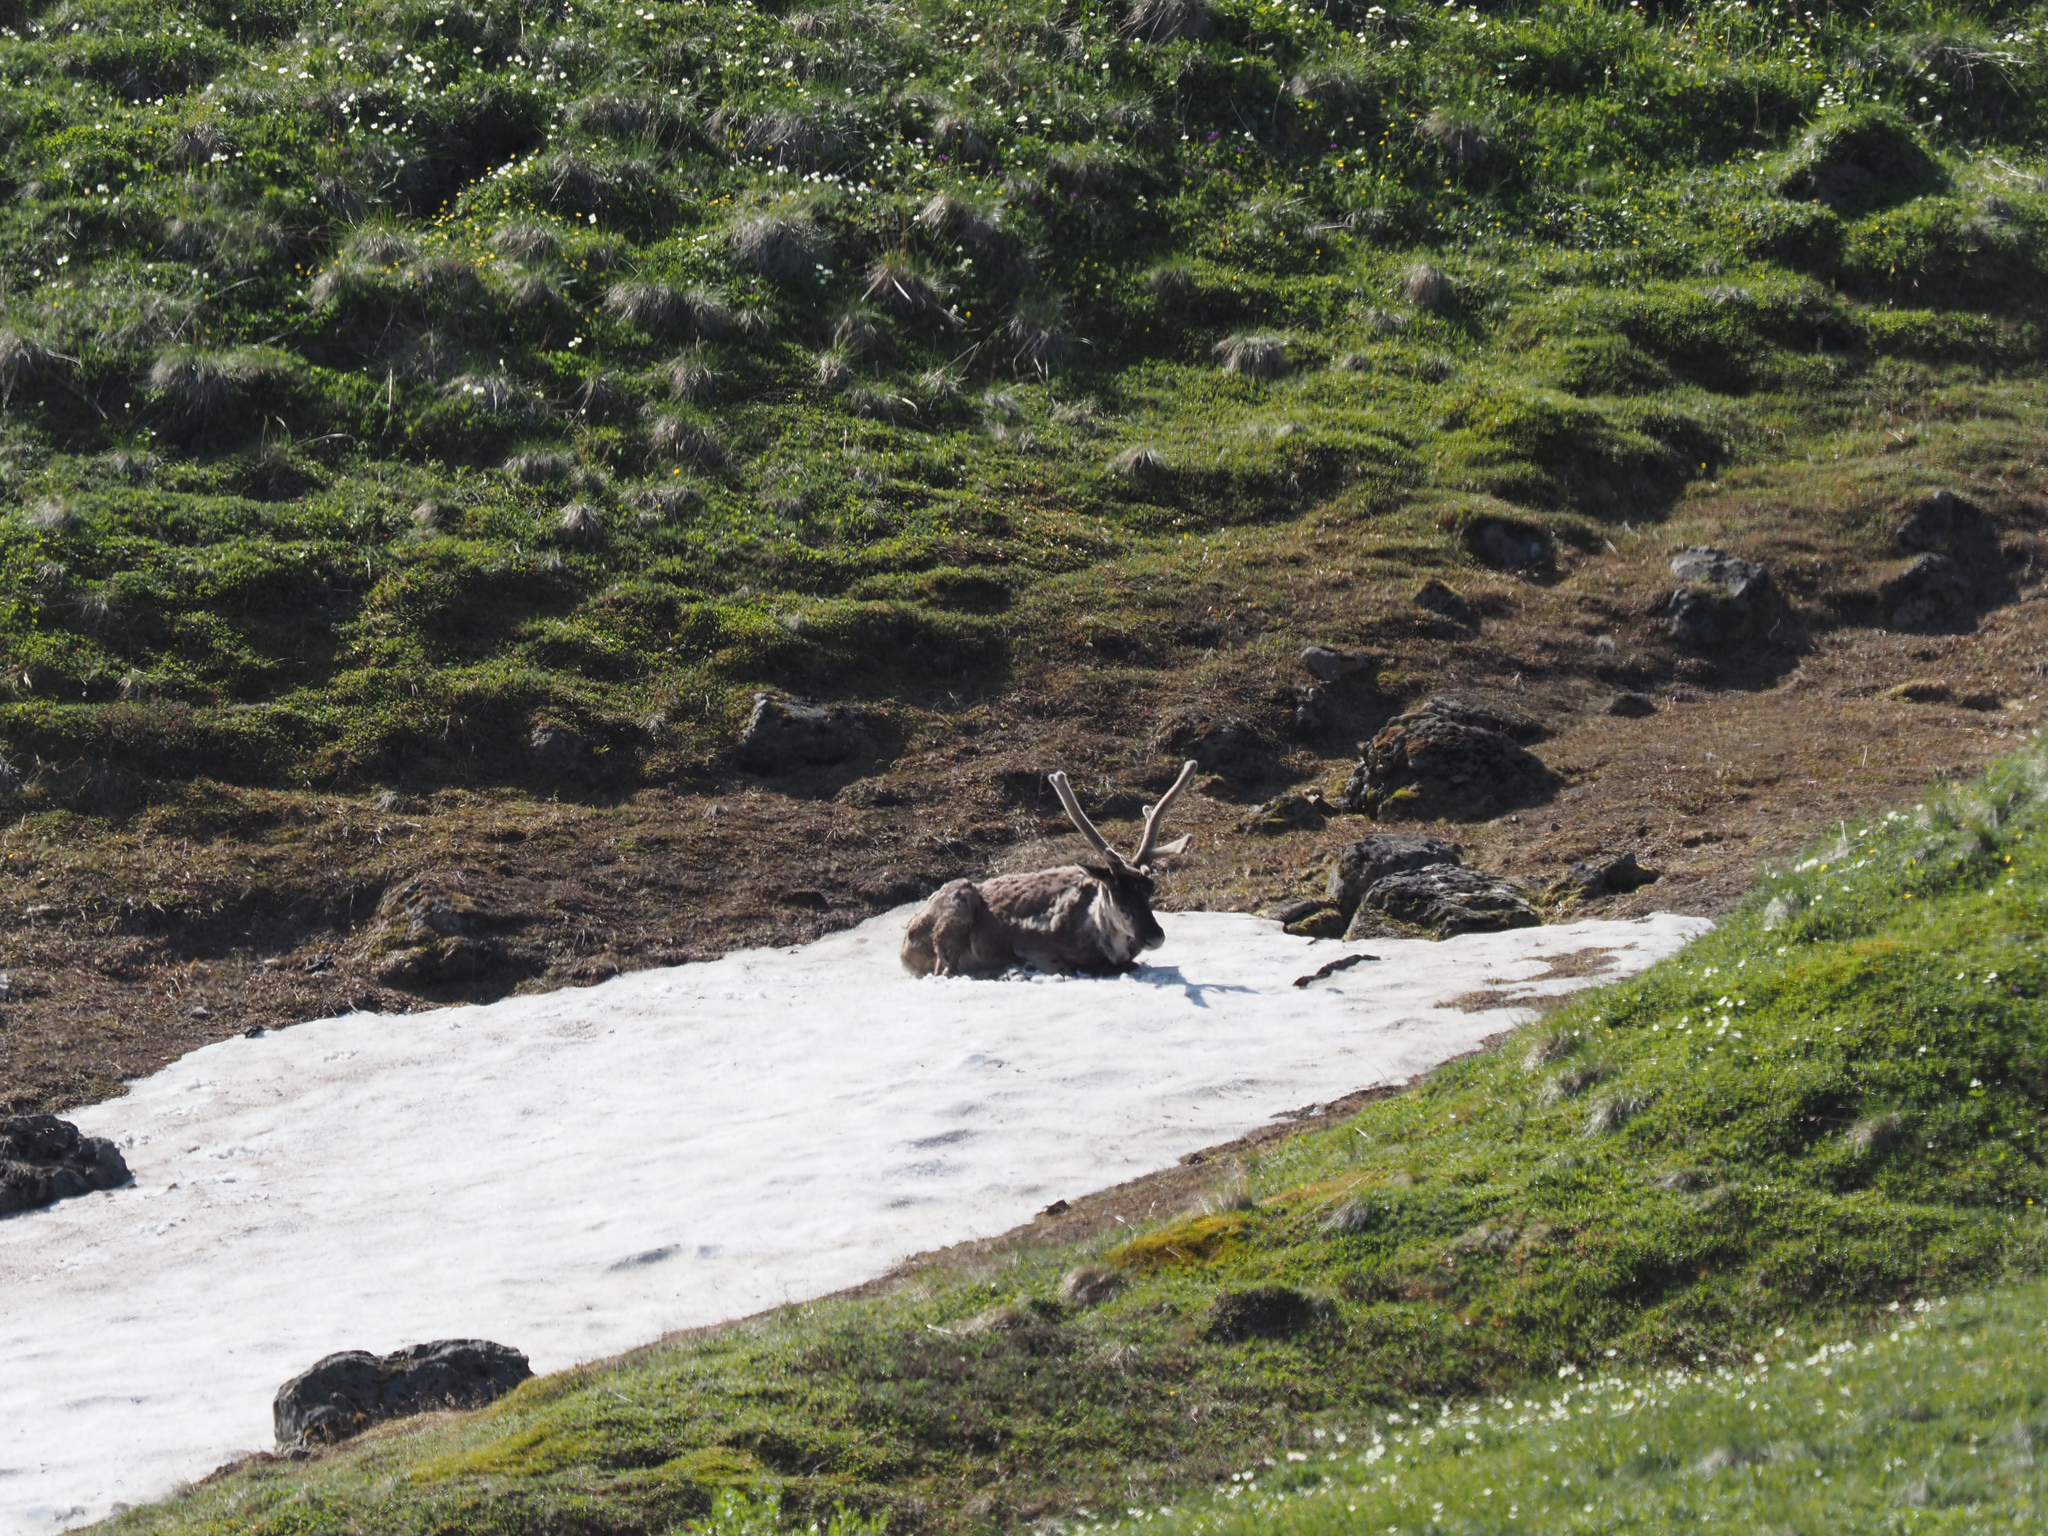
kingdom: Animalia
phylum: Chordata
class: Mammalia
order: Artiodactyla
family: Cervidae
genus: Rangifer
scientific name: Rangifer tarandus
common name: Reindeer
